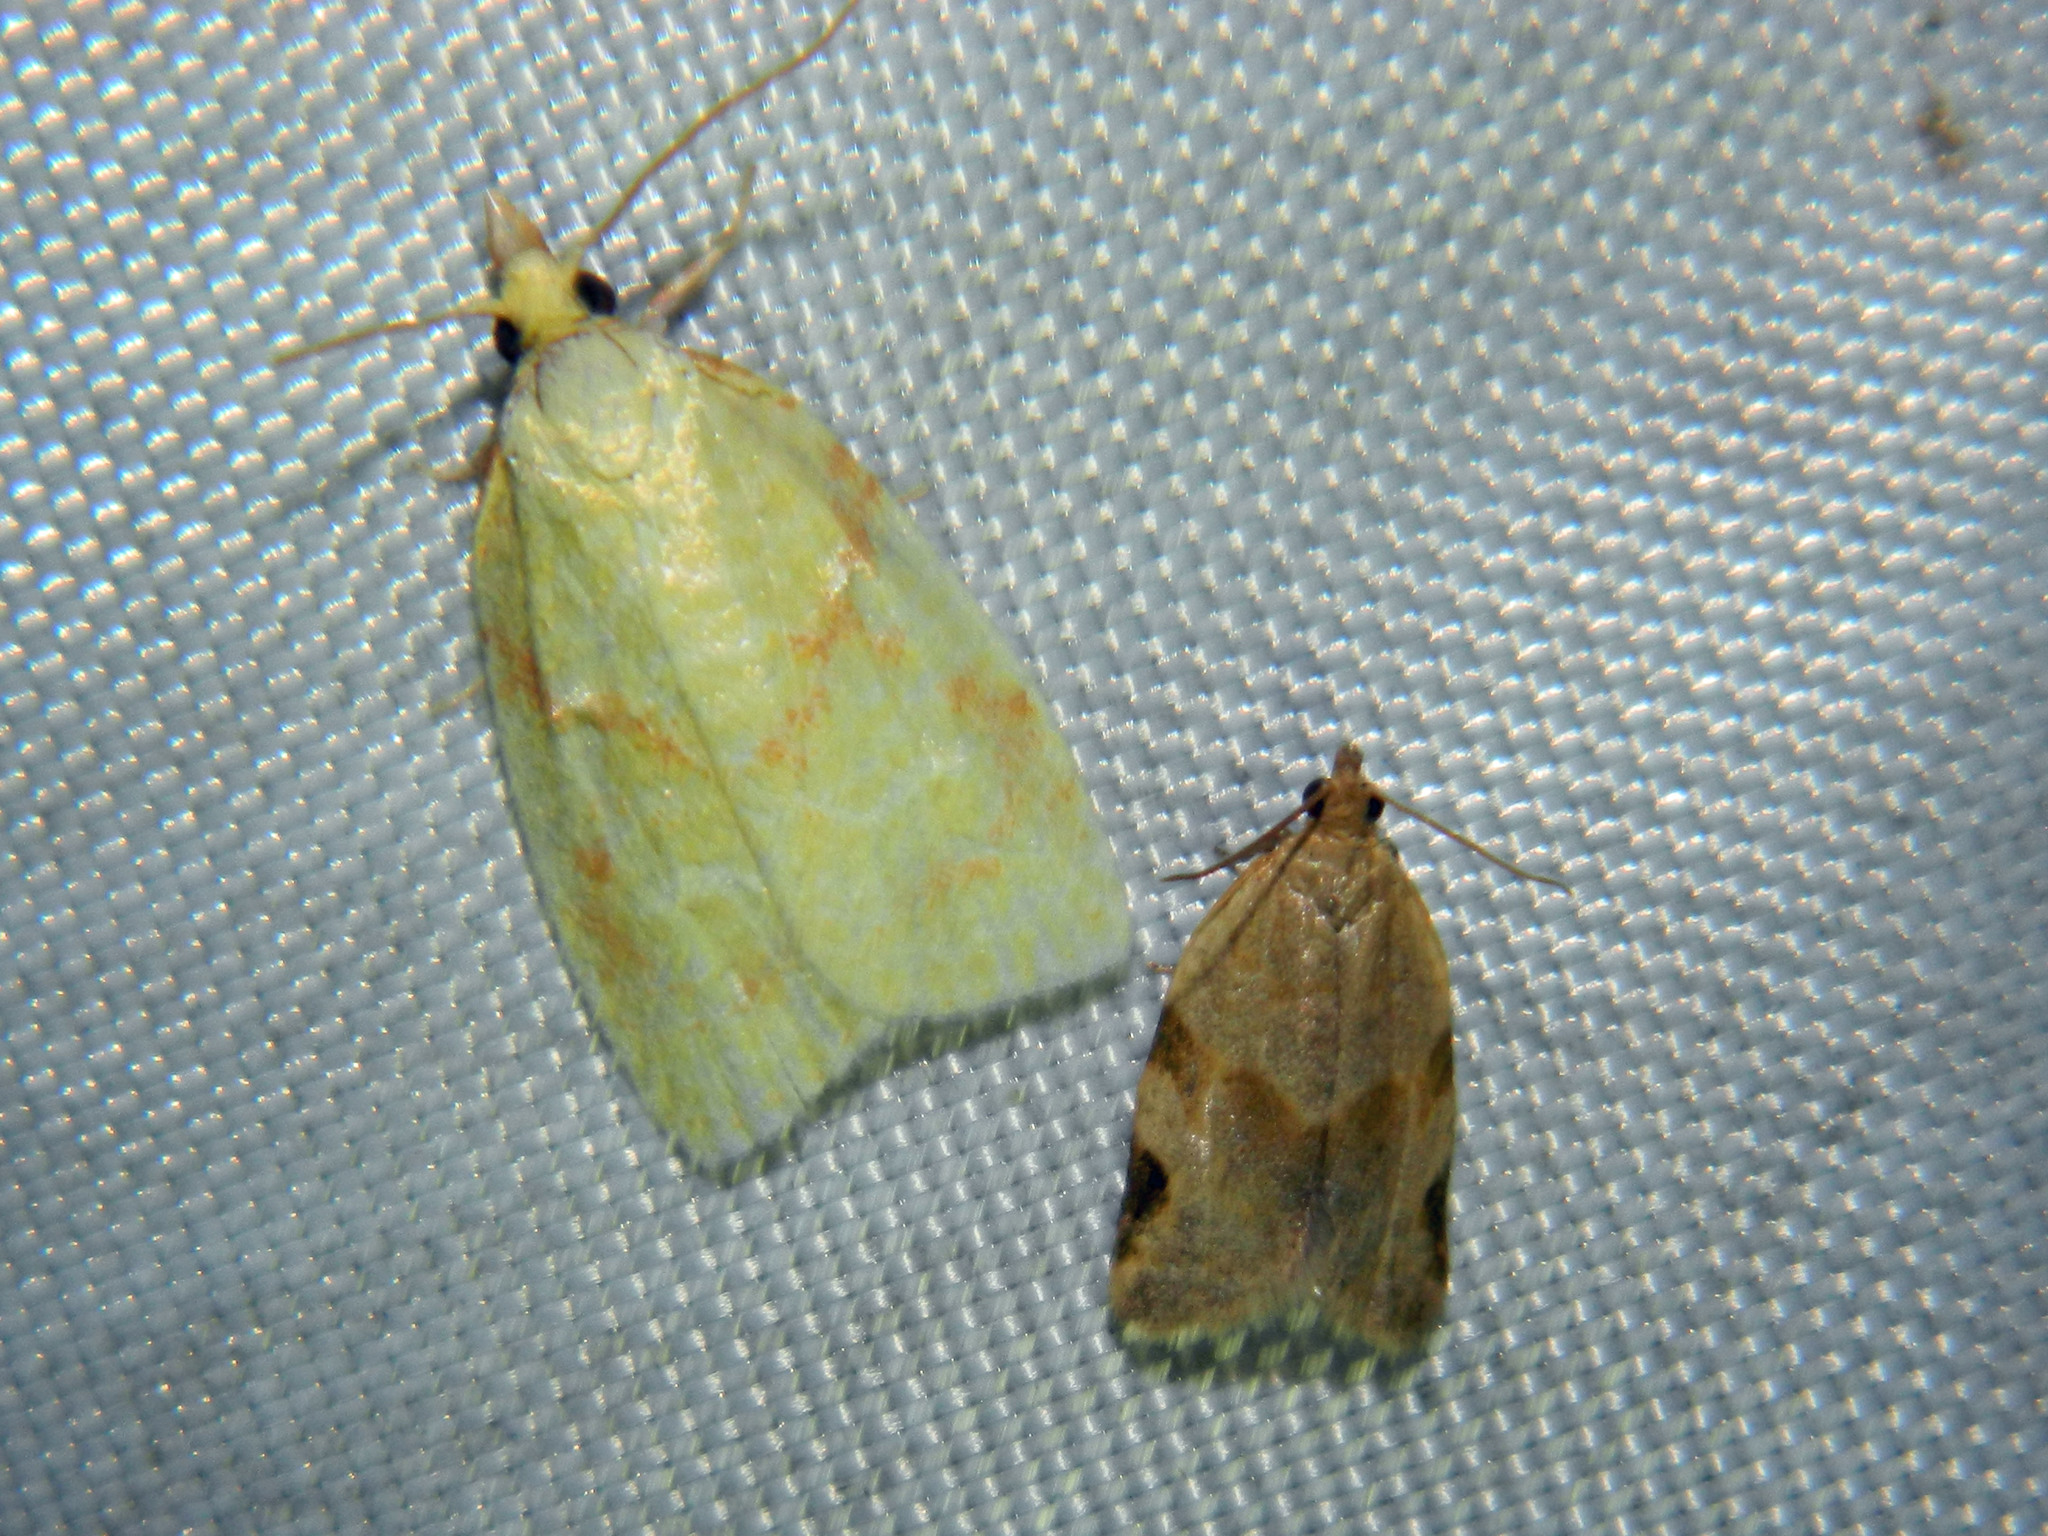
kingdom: Animalia
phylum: Arthropoda
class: Insecta
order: Lepidoptera
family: Tortricidae
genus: Cenopis
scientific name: Cenopis pettitana
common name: Maple-basswood leafroller moth
